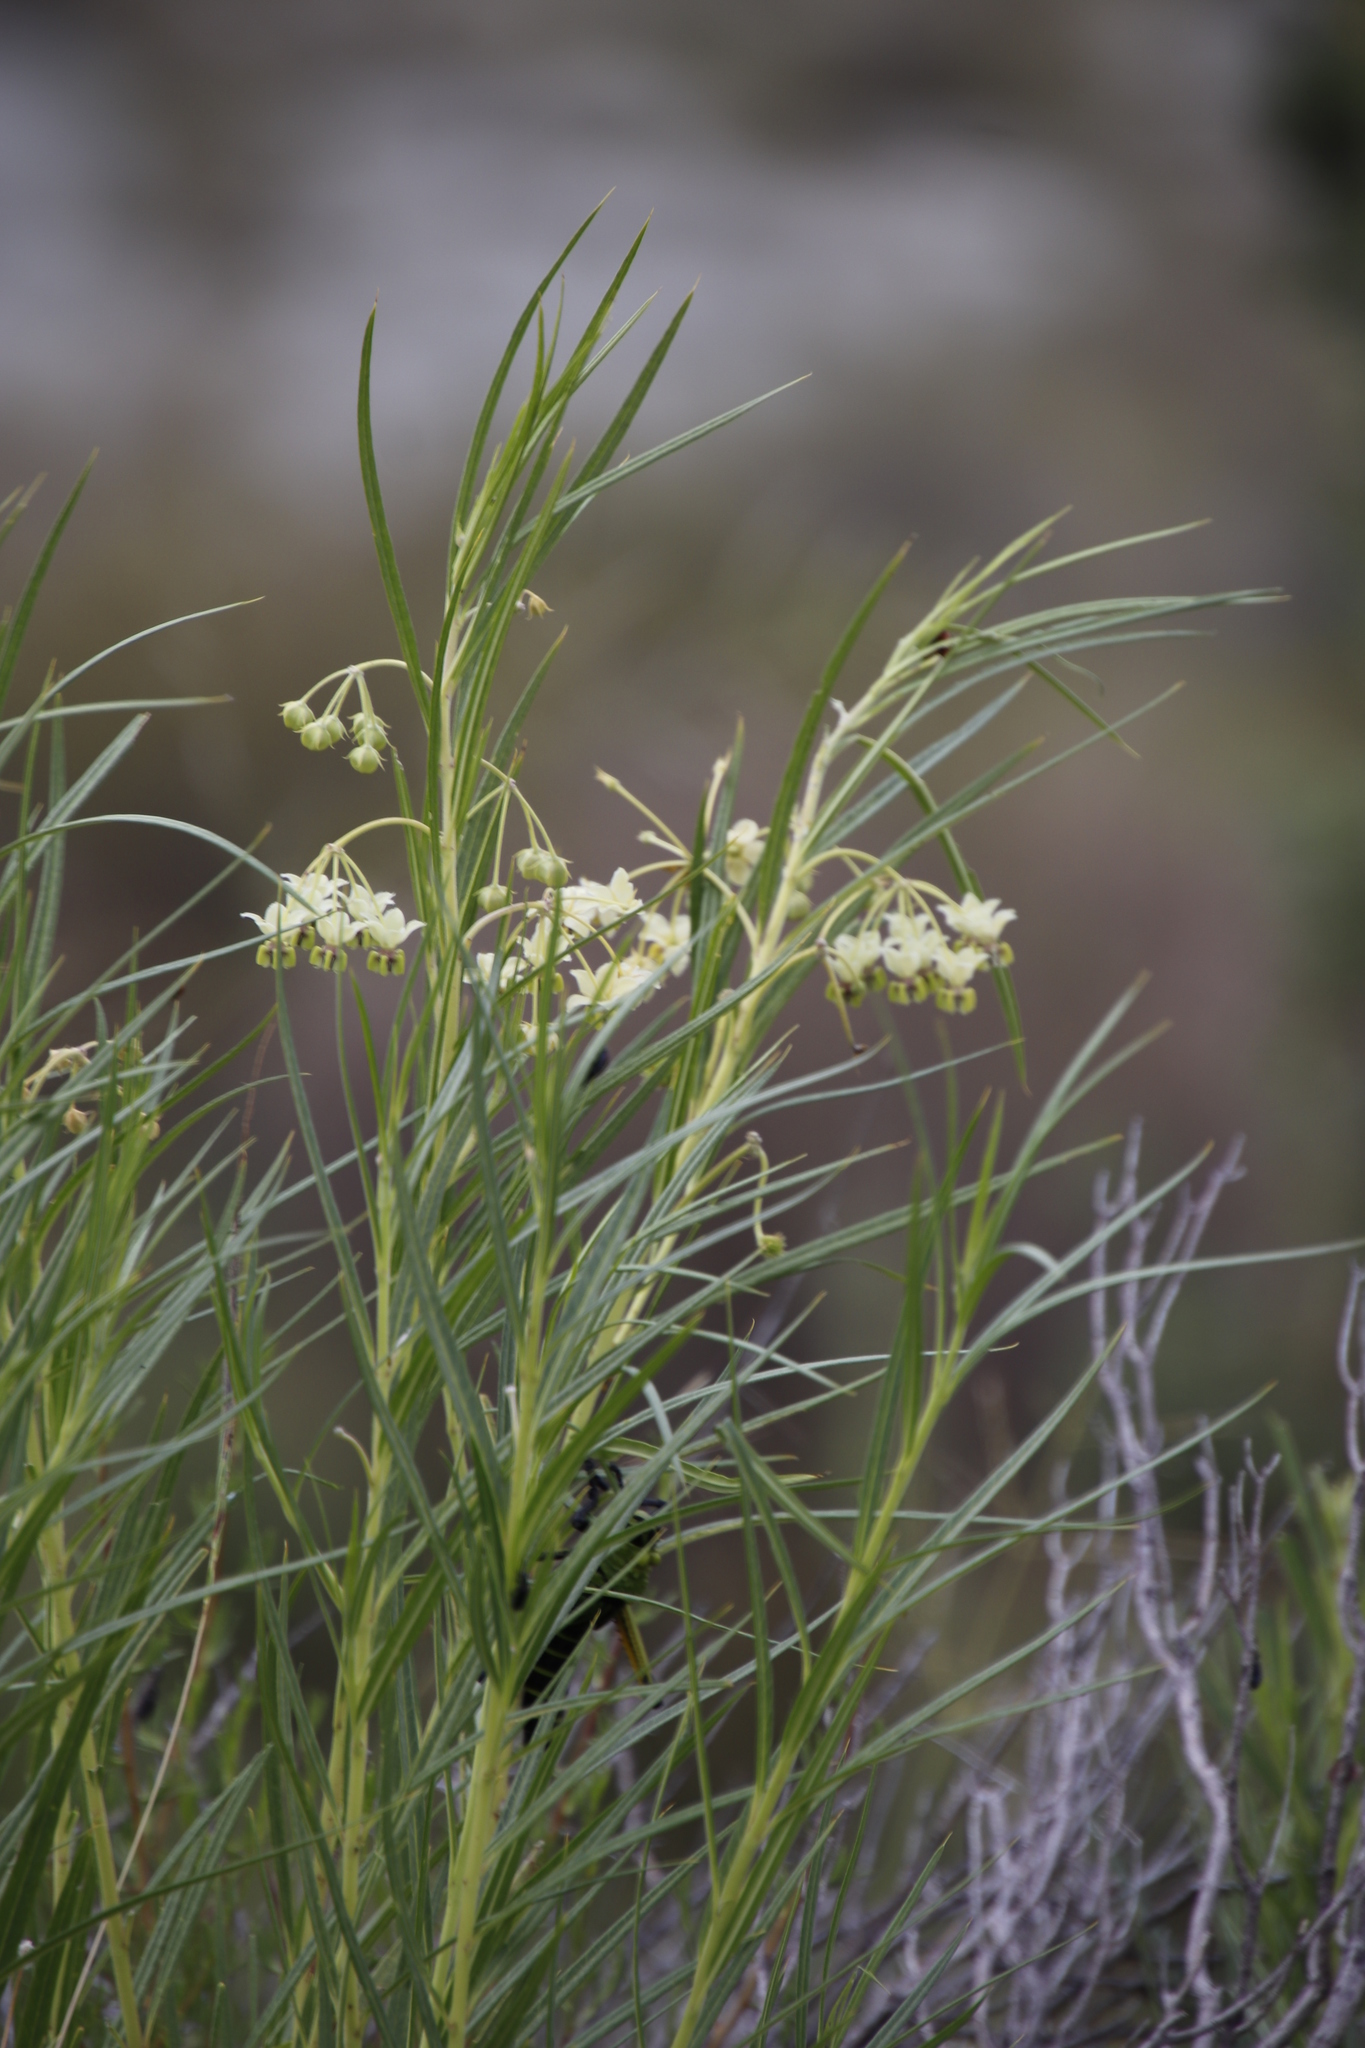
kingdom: Plantae
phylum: Tracheophyta
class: Magnoliopsida
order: Gentianales
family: Apocynaceae
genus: Gomphocarpus
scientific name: Gomphocarpus fruticosus
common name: Milkweed
